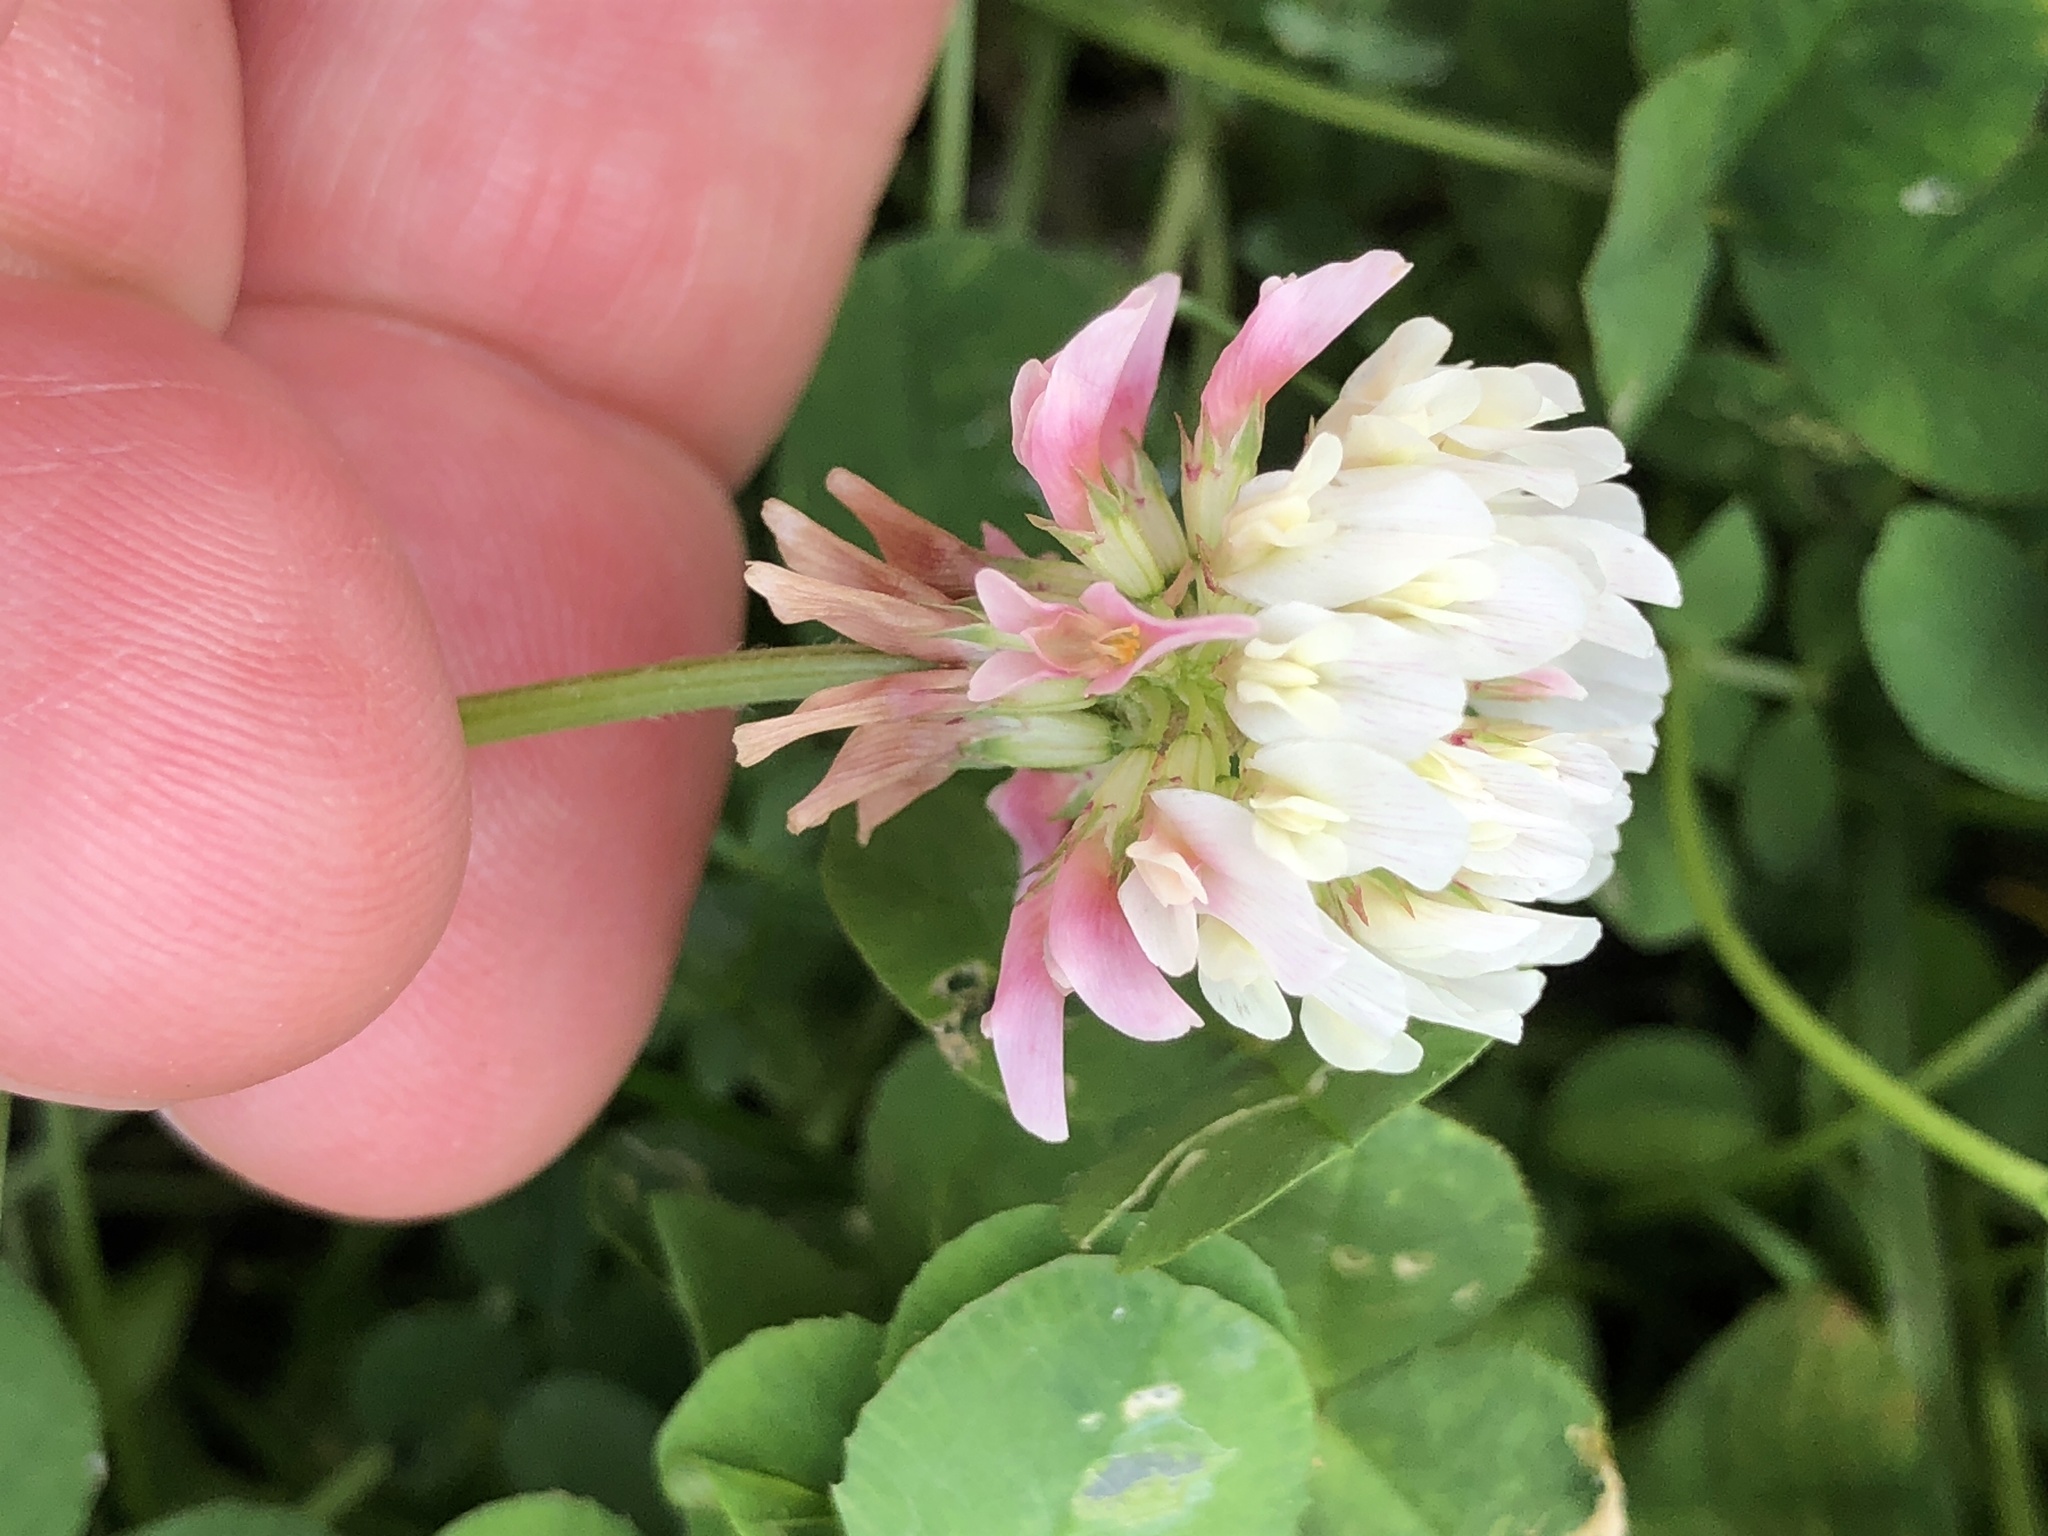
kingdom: Plantae
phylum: Tracheophyta
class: Magnoliopsida
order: Fabales
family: Fabaceae
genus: Trifolium
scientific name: Trifolium repens
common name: White clover
